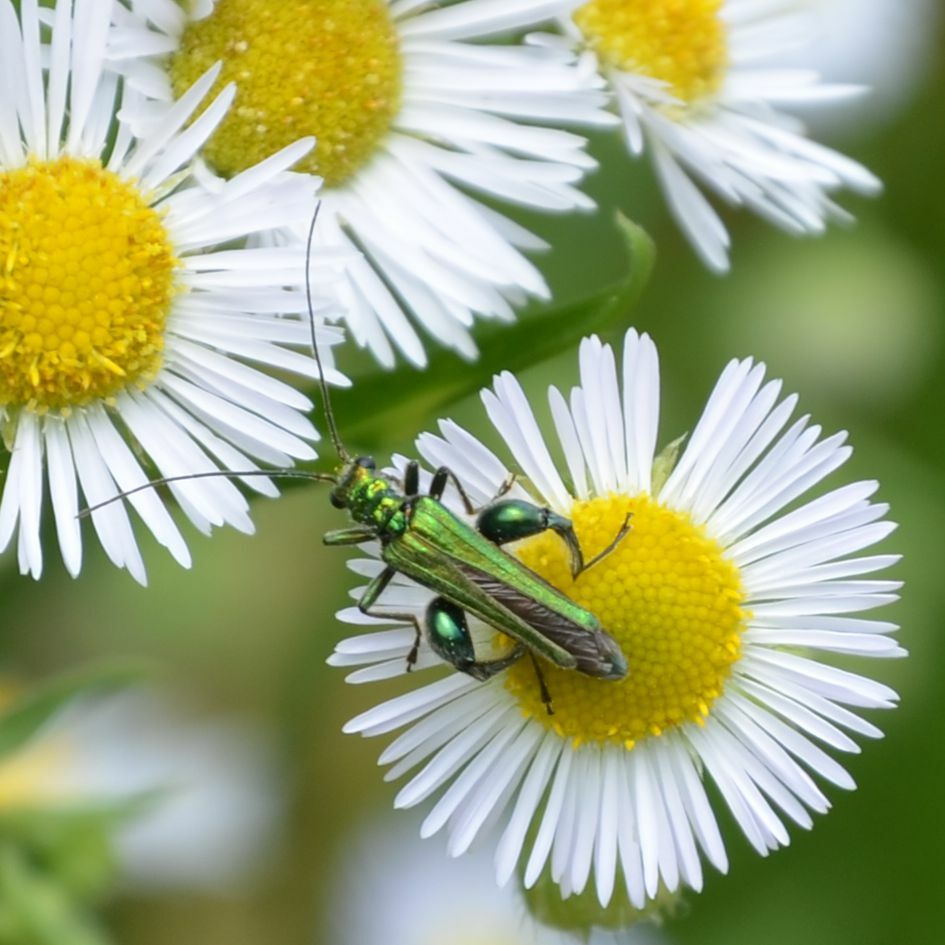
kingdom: Animalia
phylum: Arthropoda
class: Insecta
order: Coleoptera
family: Oedemeridae
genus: Oedemera
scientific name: Oedemera nobilis
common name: Swollen-thighed beetle
